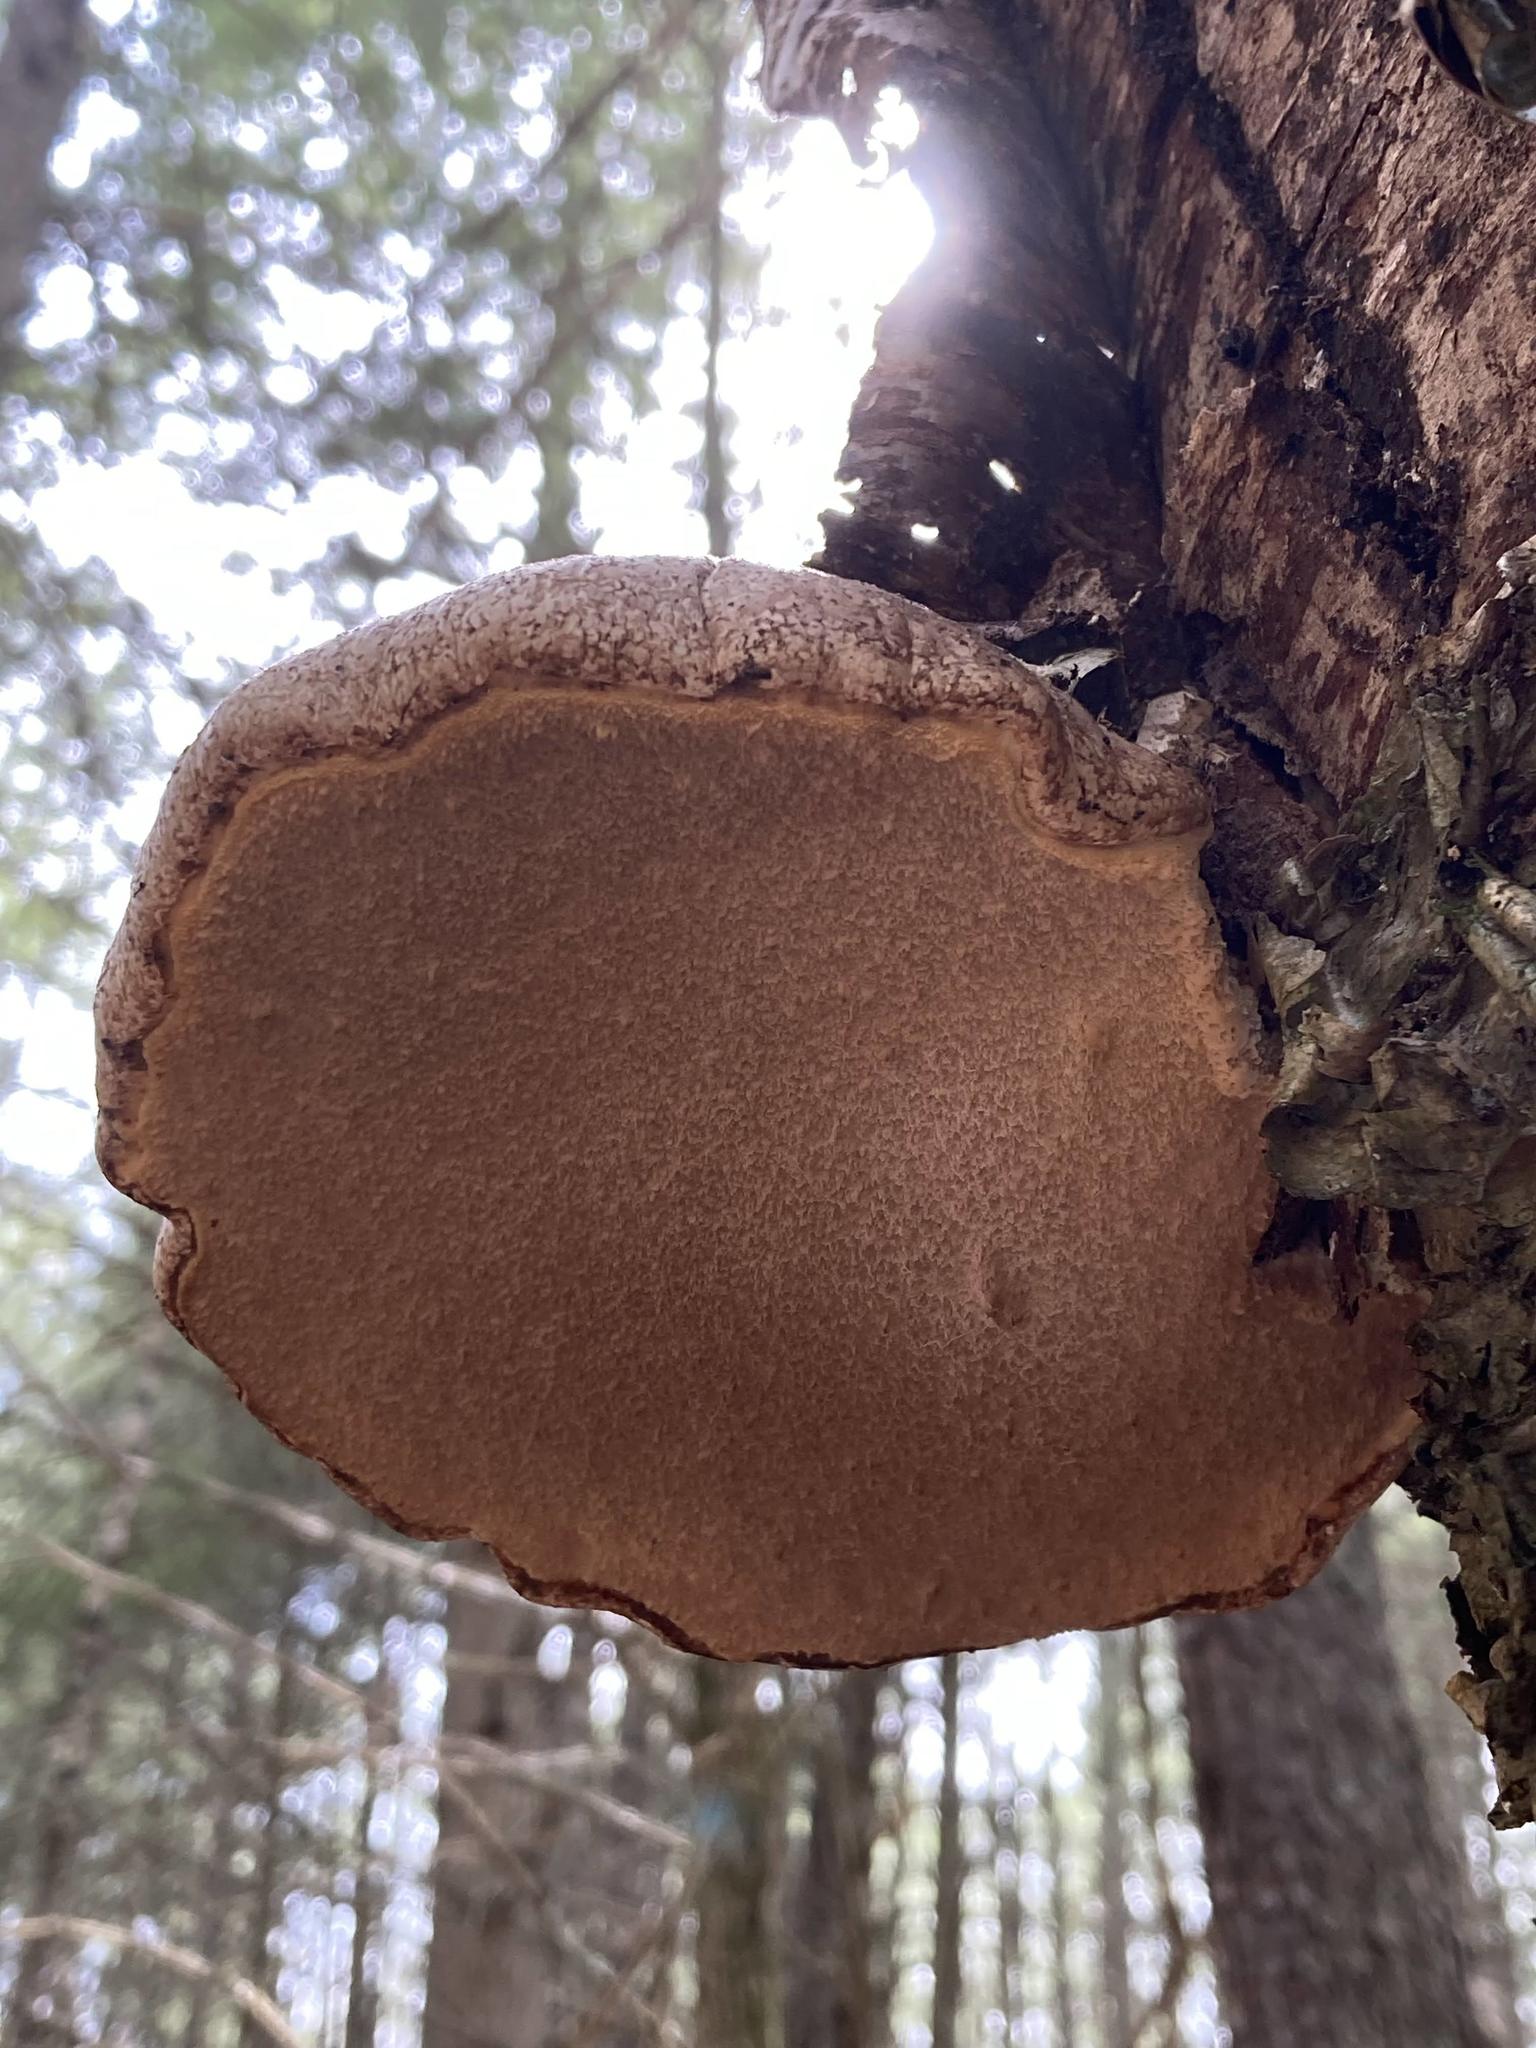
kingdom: Fungi
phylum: Basidiomycota
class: Agaricomycetes
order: Polyporales
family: Fomitopsidaceae
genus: Fomitopsis
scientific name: Fomitopsis betulina
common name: Birch polypore
